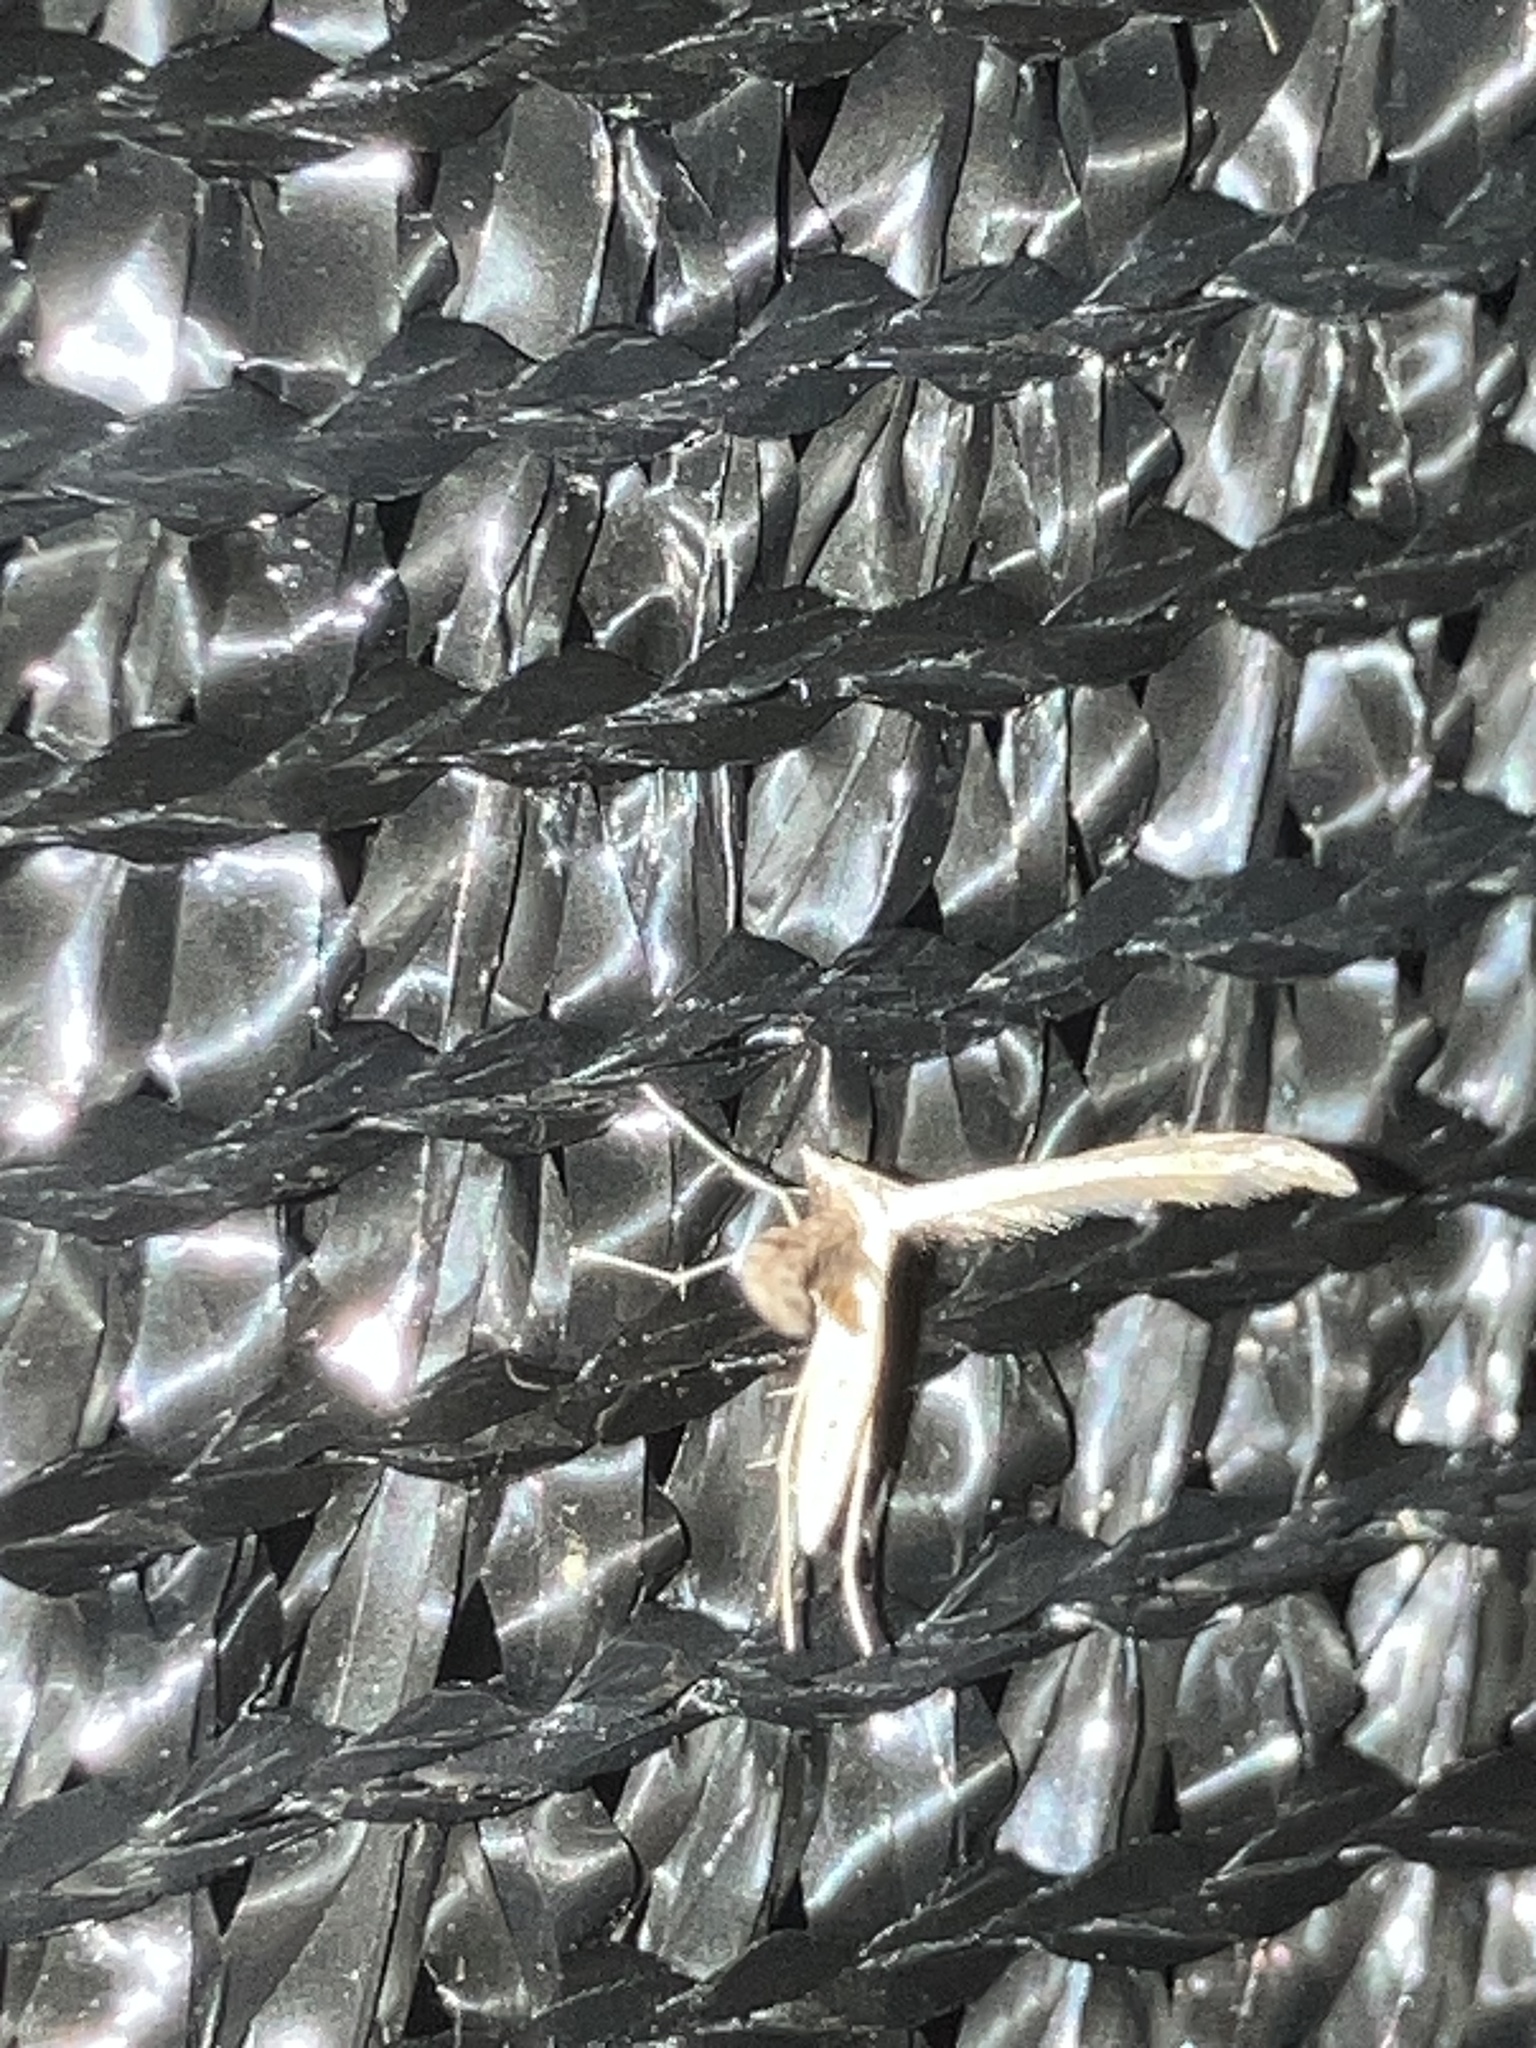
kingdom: Animalia
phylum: Arthropoda
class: Insecta
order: Lepidoptera
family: Pterophoridae
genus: Lioptilodes
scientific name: Lioptilodes albistriolatus
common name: Moth
